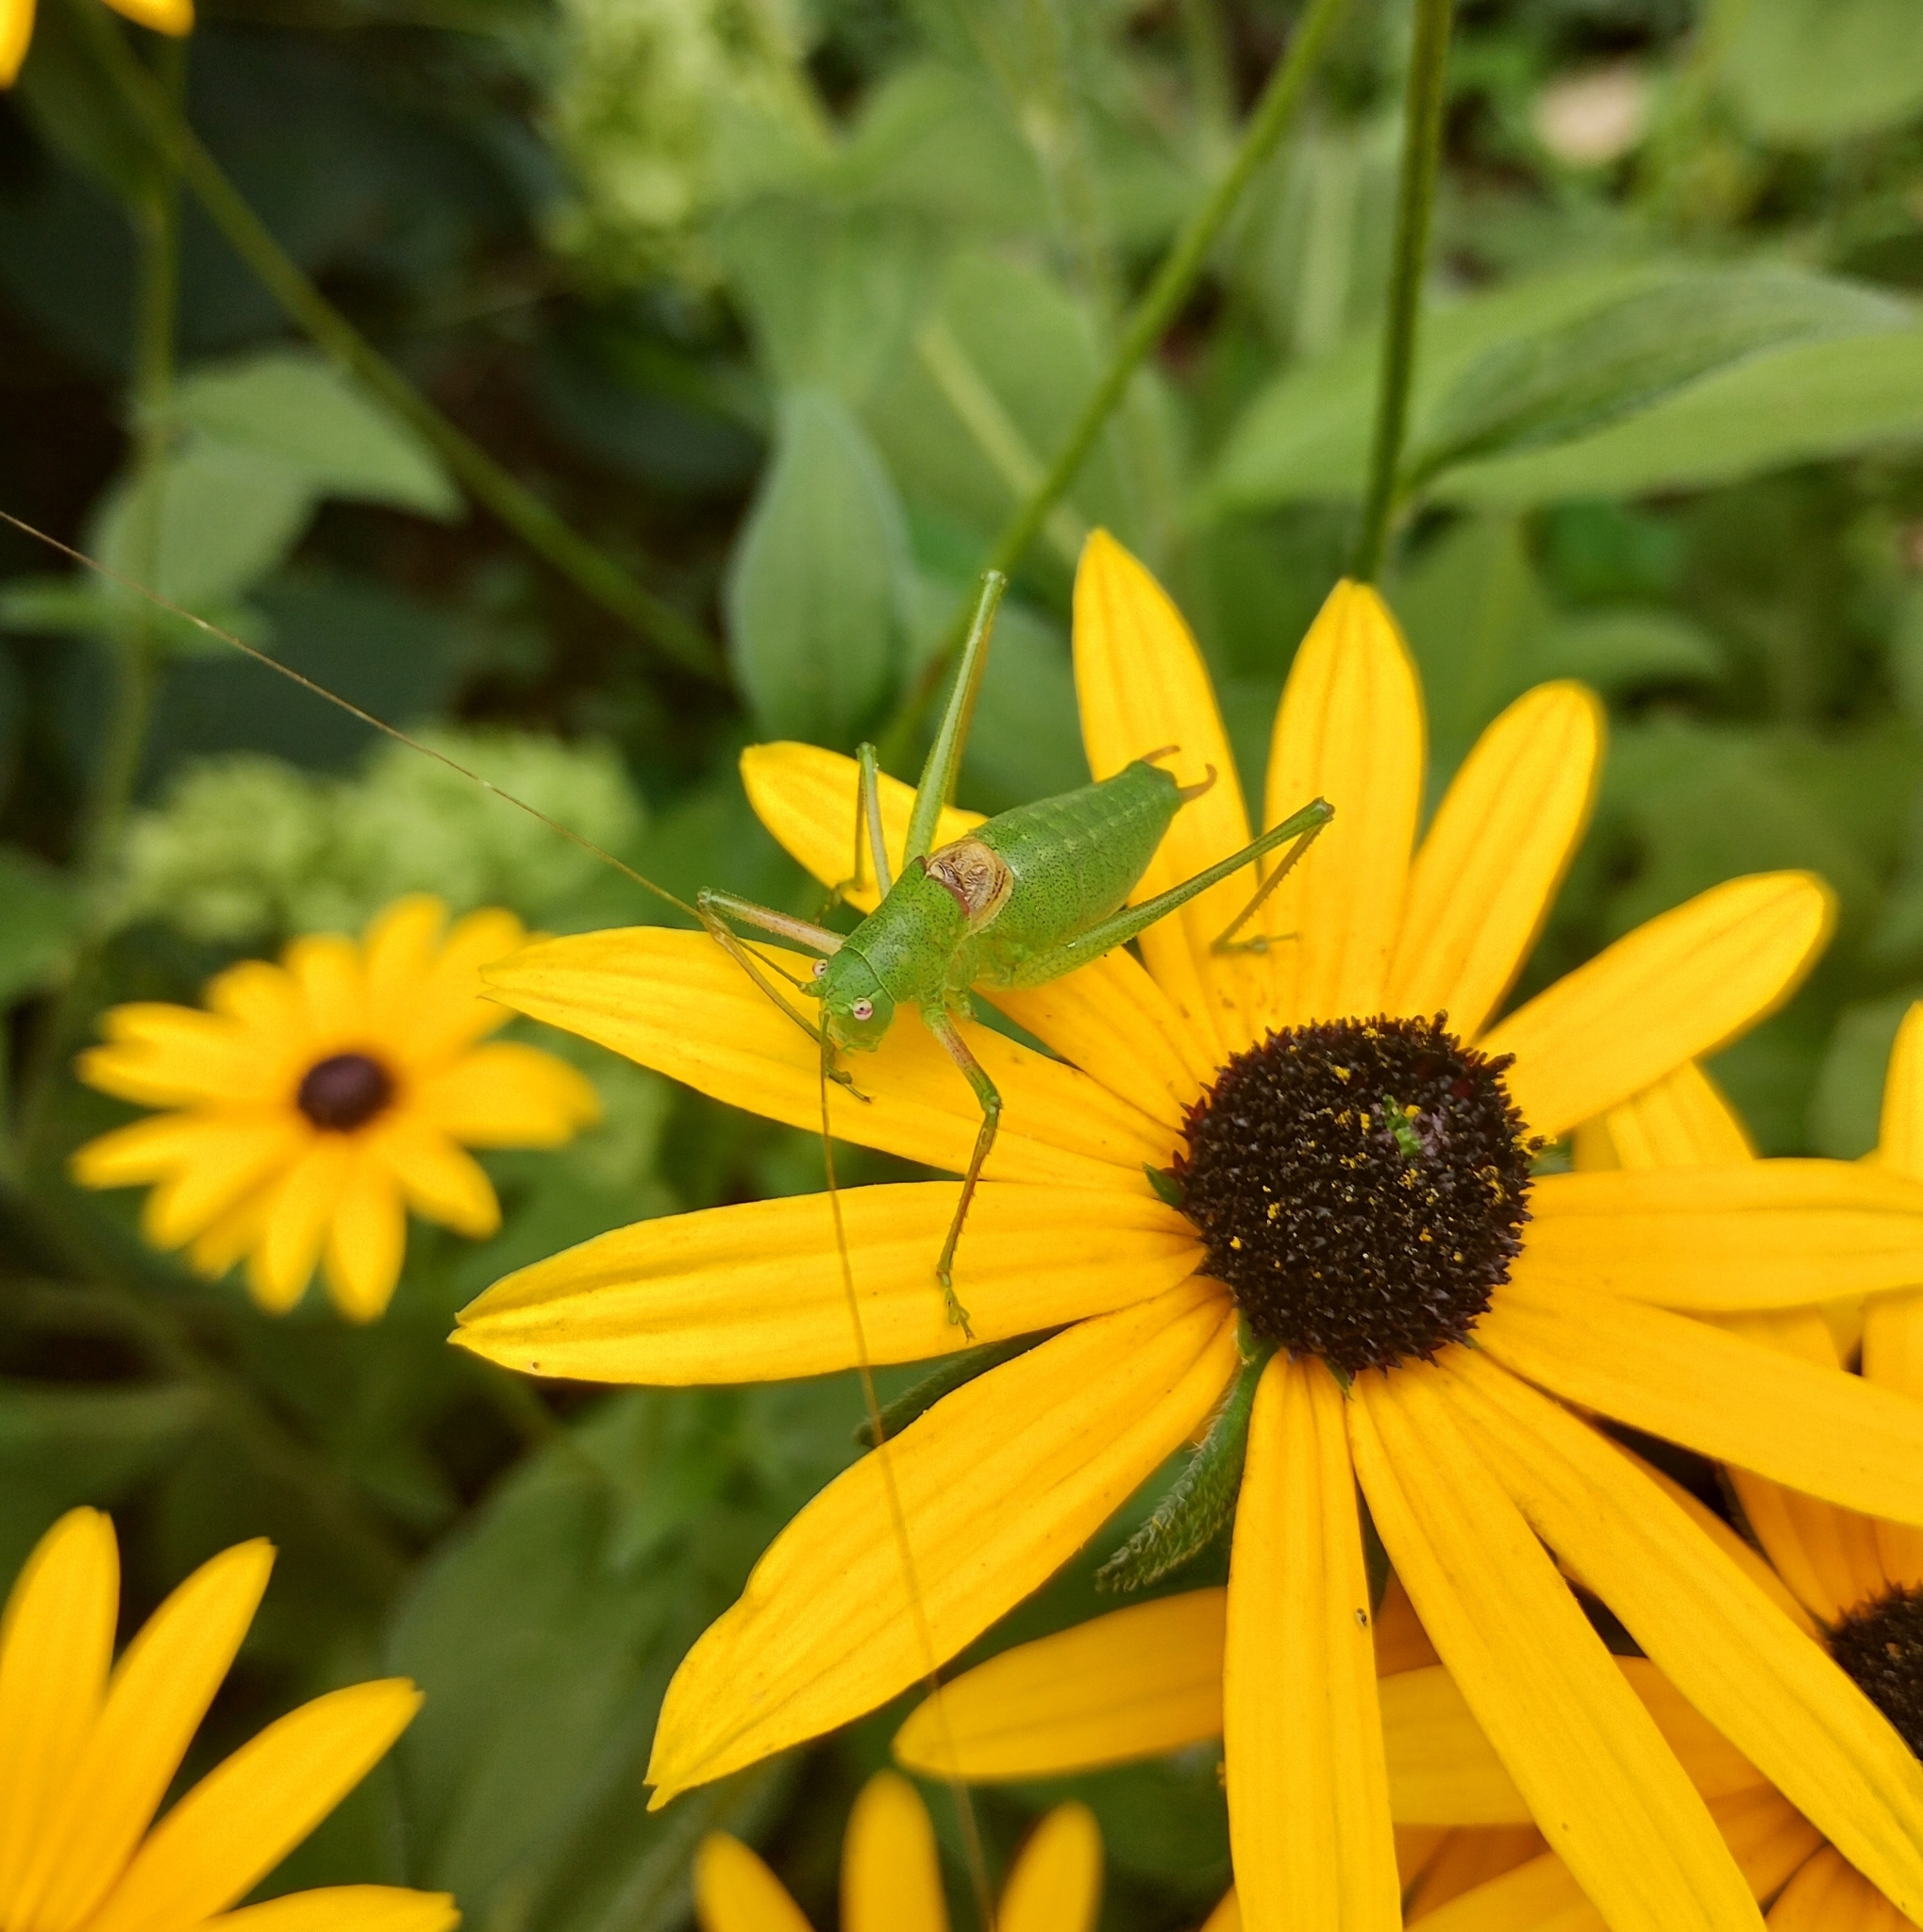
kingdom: Animalia
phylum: Arthropoda
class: Insecta
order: Orthoptera
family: Tettigoniidae
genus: Poecilimon
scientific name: Poecilimon schmidtii
